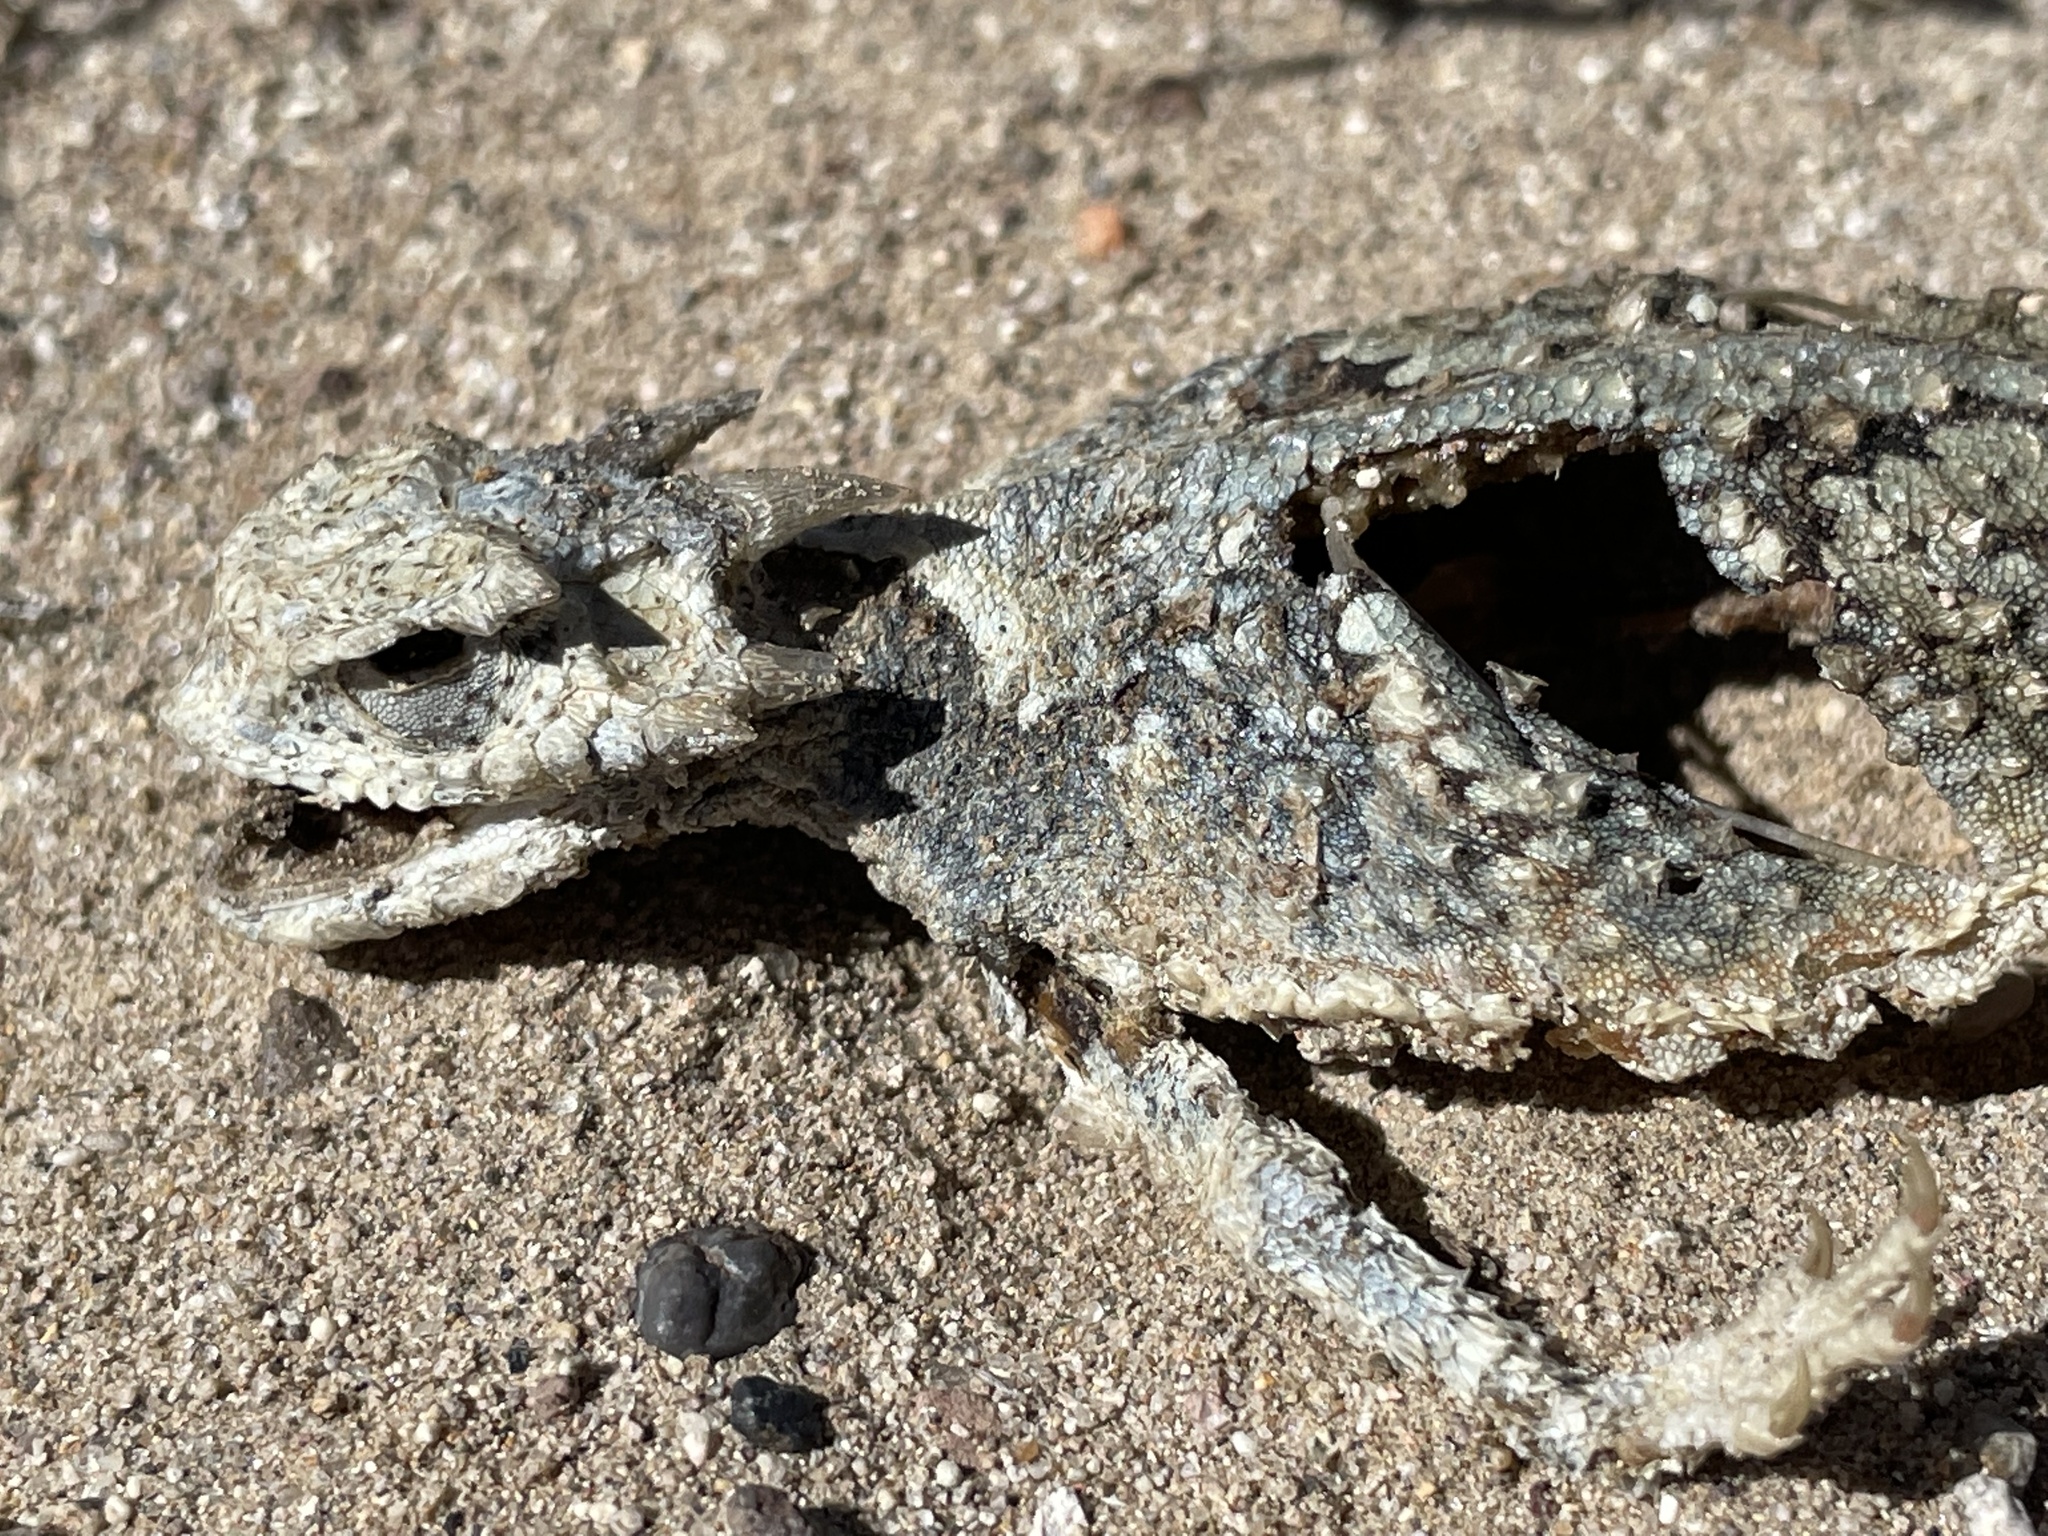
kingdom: Animalia
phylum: Chordata
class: Squamata
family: Phrynosomatidae
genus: Phrynosoma
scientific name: Phrynosoma platyrhinos
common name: Desert horned lizard
